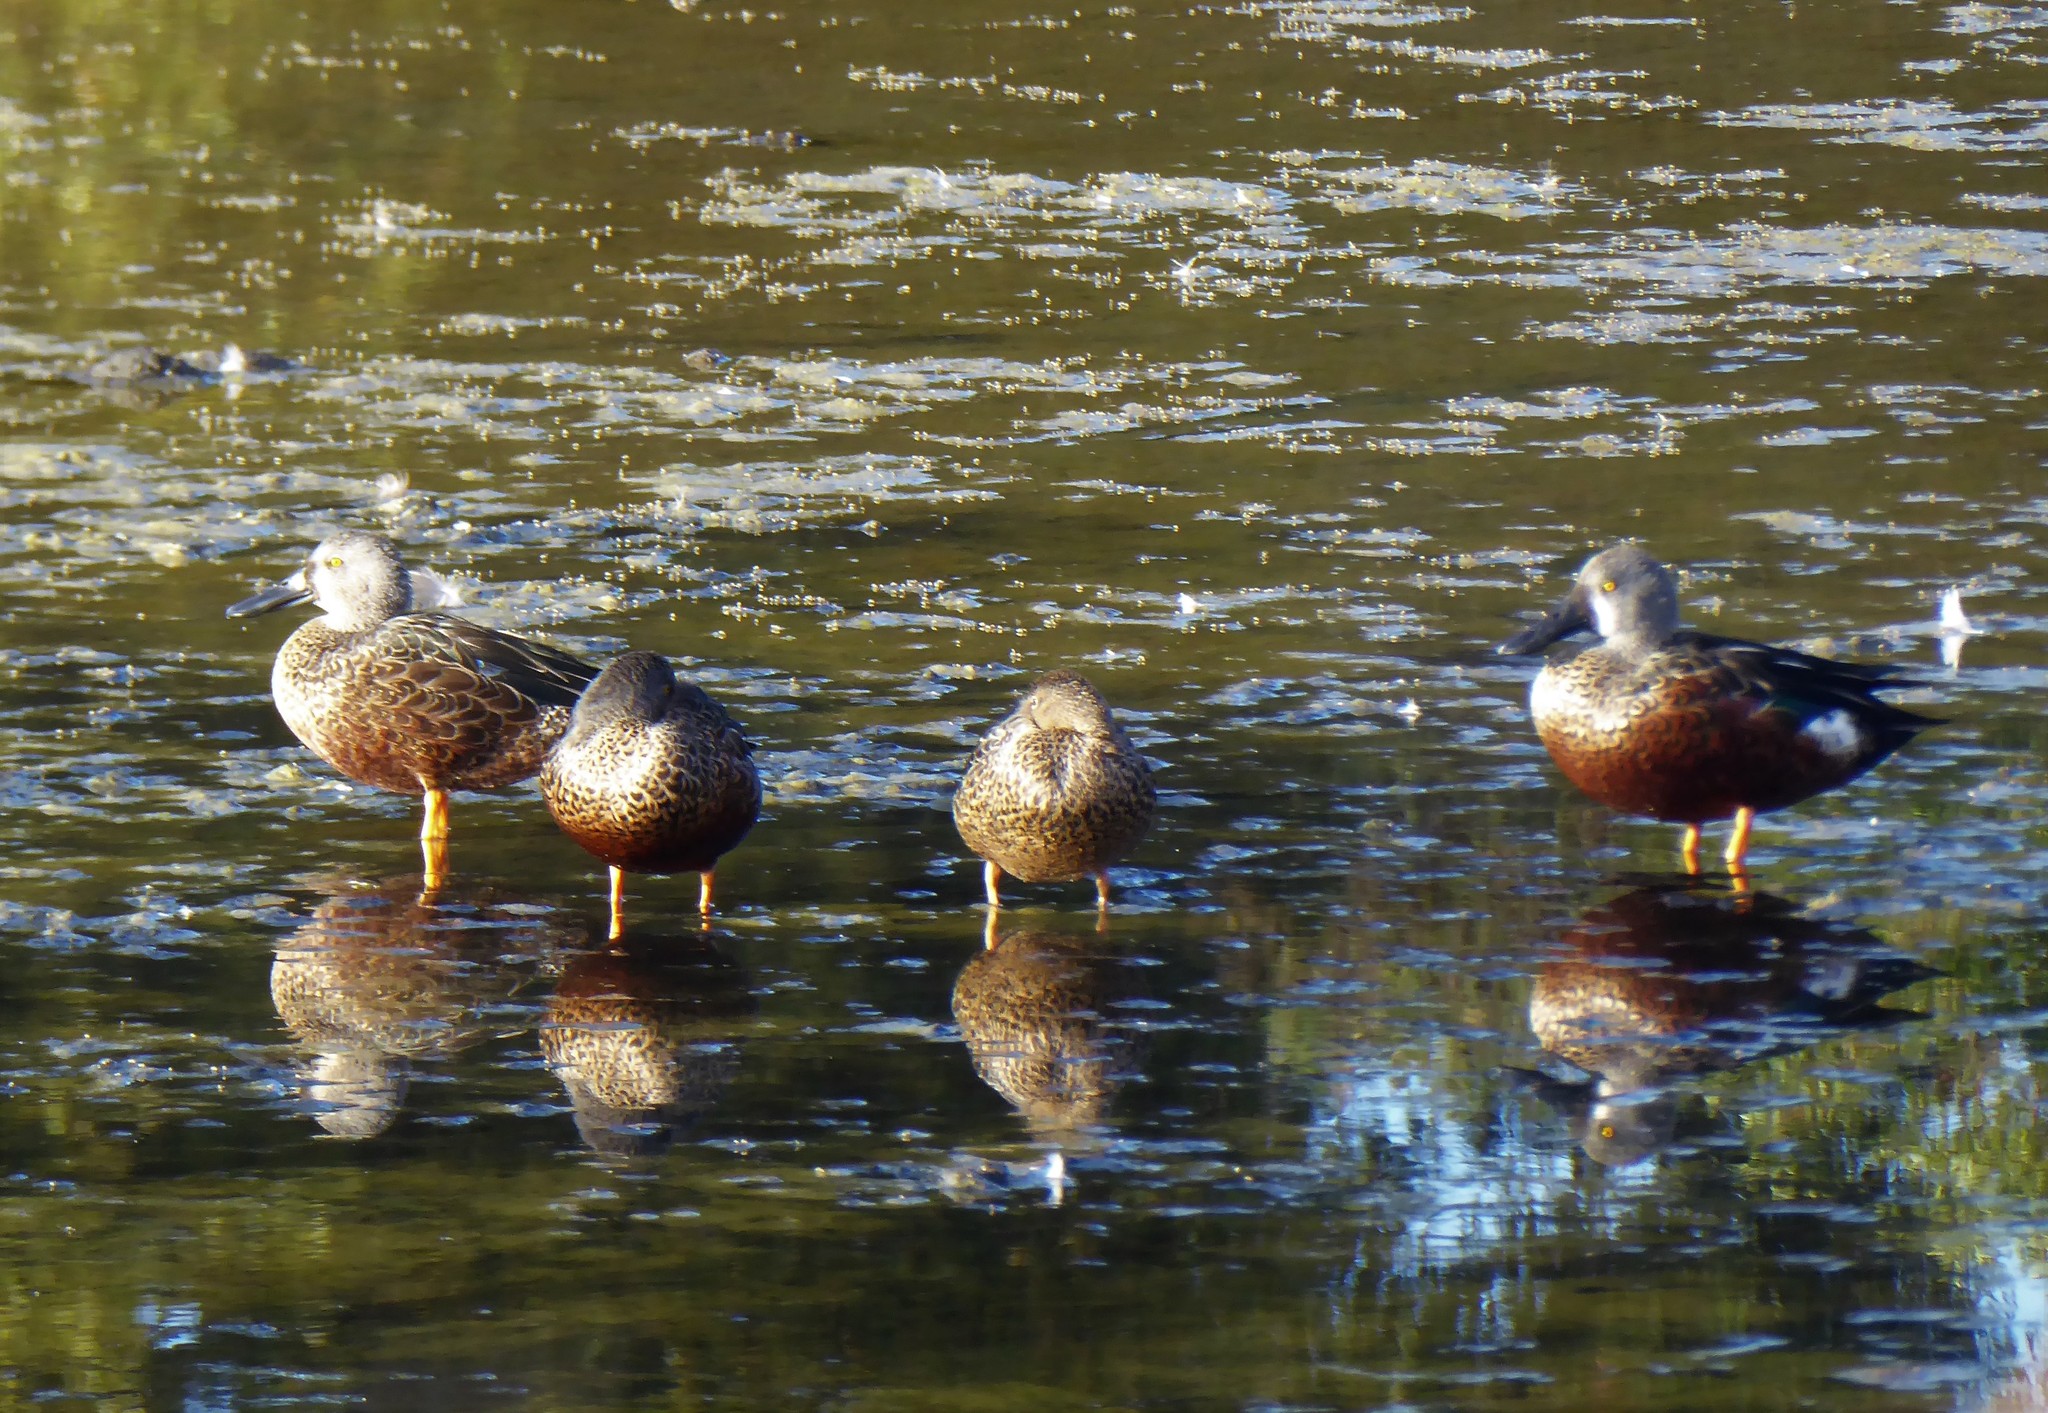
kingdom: Animalia
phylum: Chordata
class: Aves
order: Anseriformes
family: Anatidae
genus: Spatula
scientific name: Spatula rhynchotis
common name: Australian shoveler
